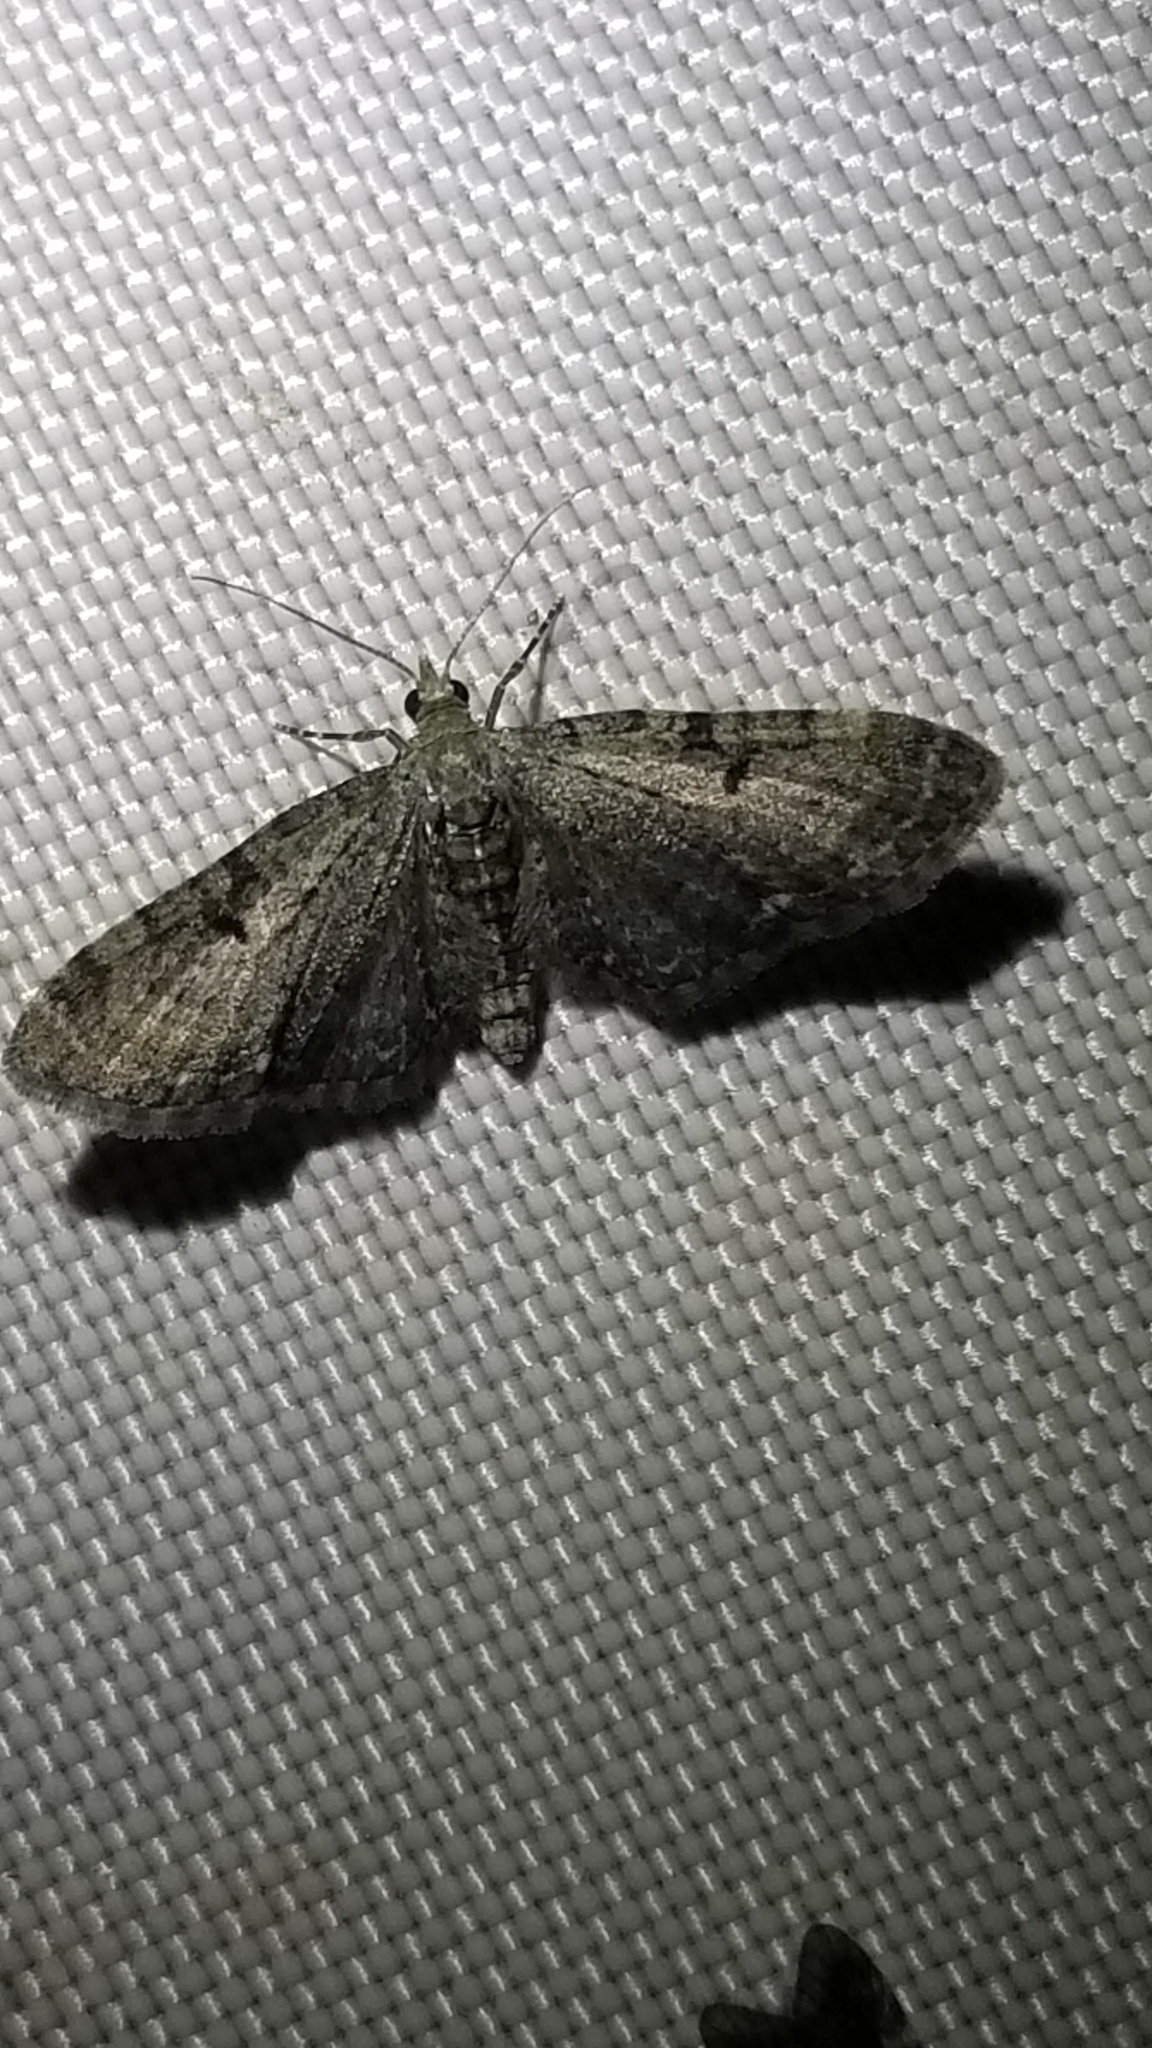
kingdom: Animalia
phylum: Arthropoda
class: Insecta
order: Lepidoptera
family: Geometridae
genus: Eupithecia
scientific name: Eupithecia miserulata
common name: Common eupithecia
